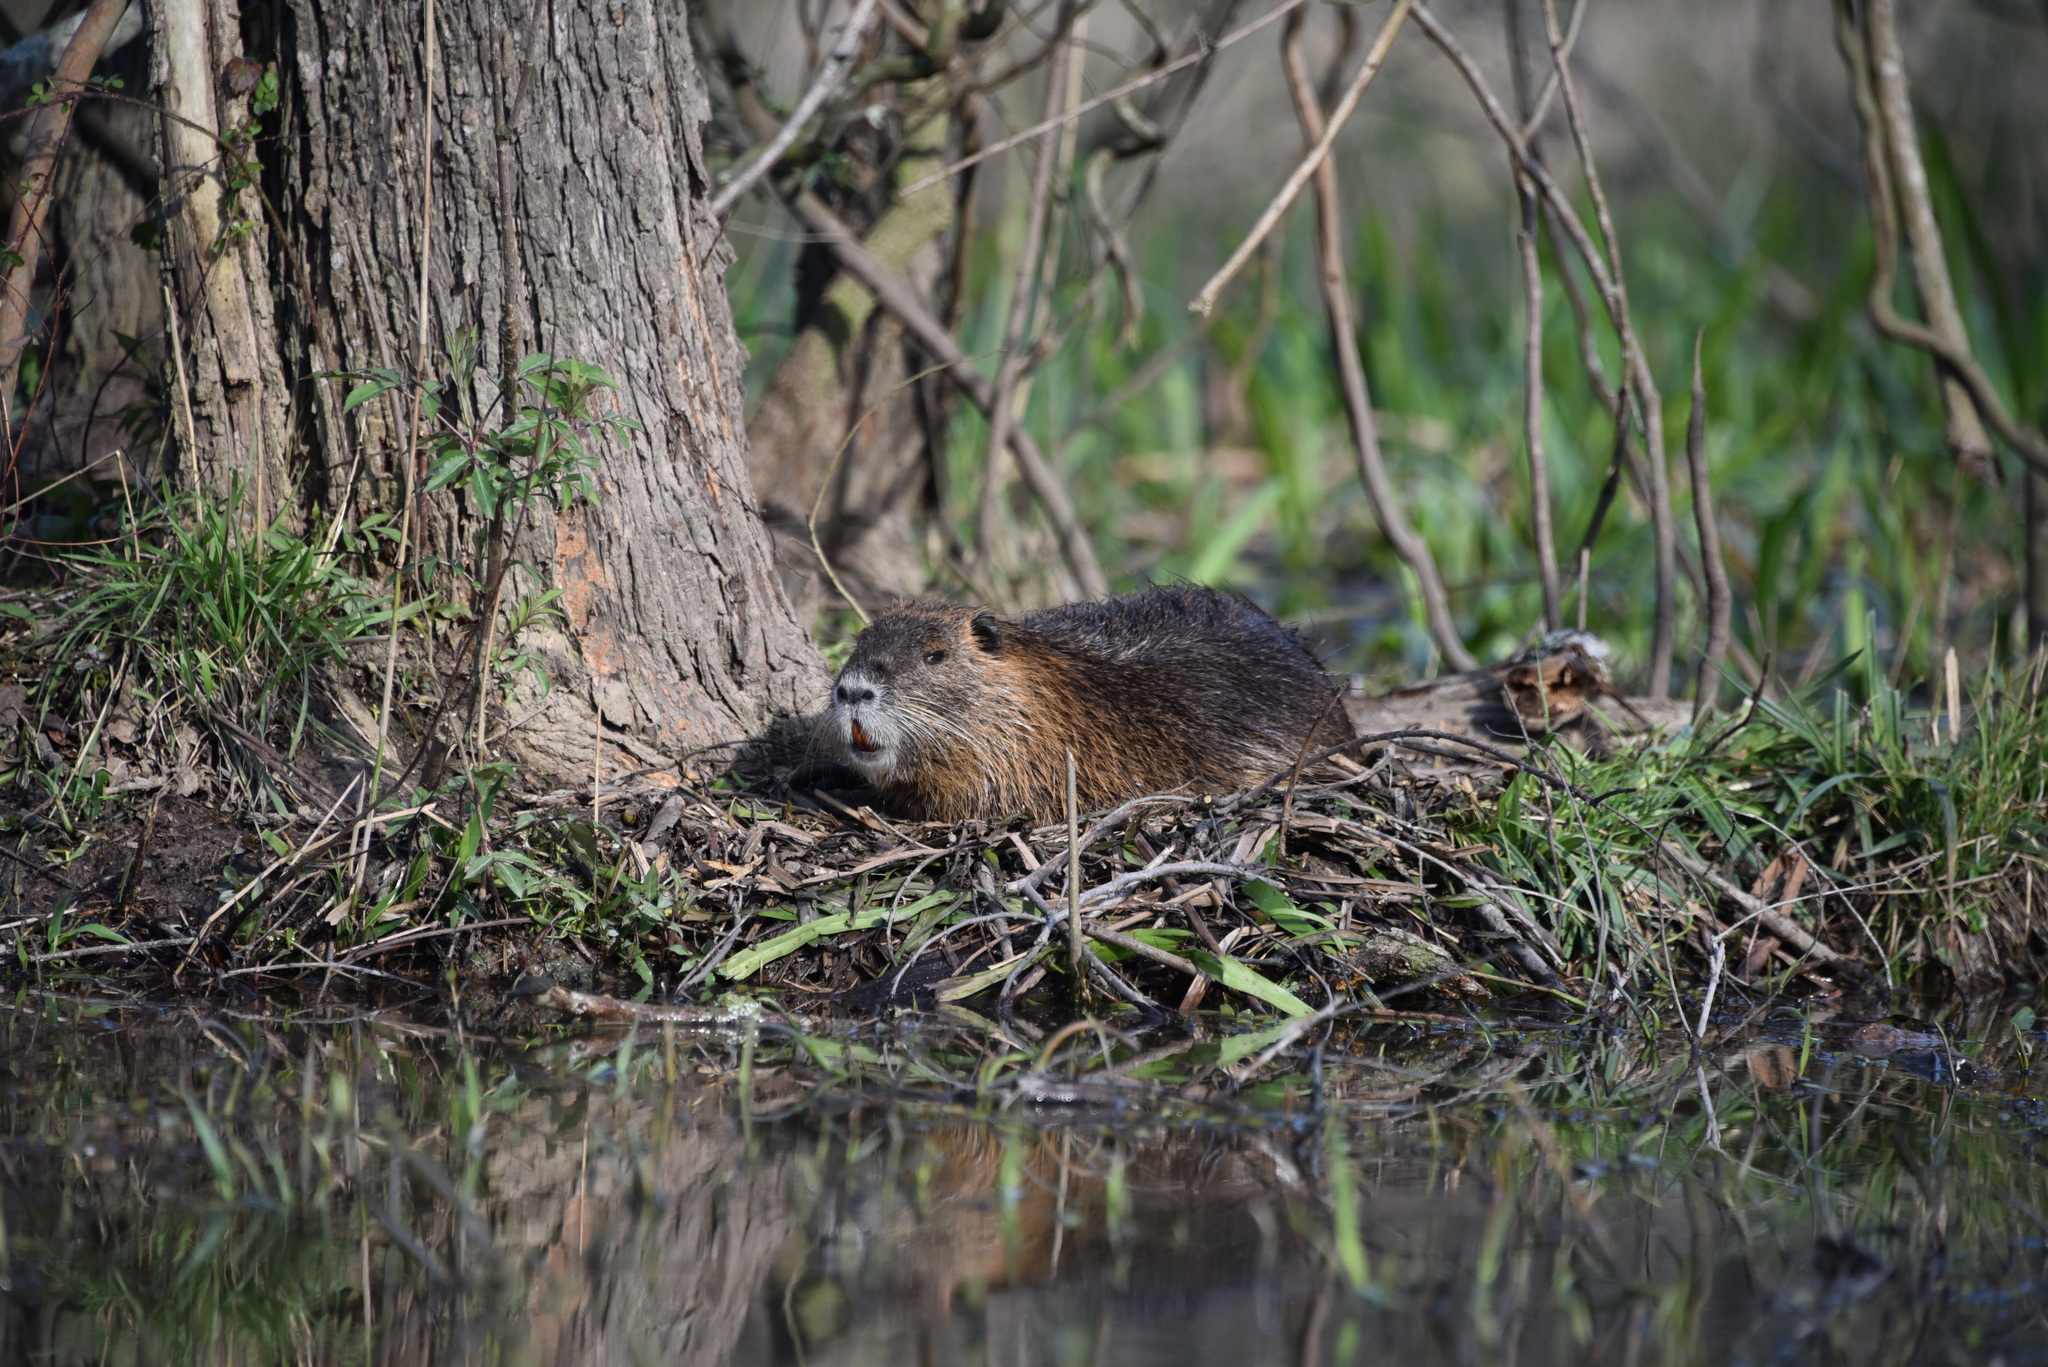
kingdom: Animalia
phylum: Chordata
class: Mammalia
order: Rodentia
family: Myocastoridae
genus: Myocastor
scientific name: Myocastor coypus
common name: Coypu
